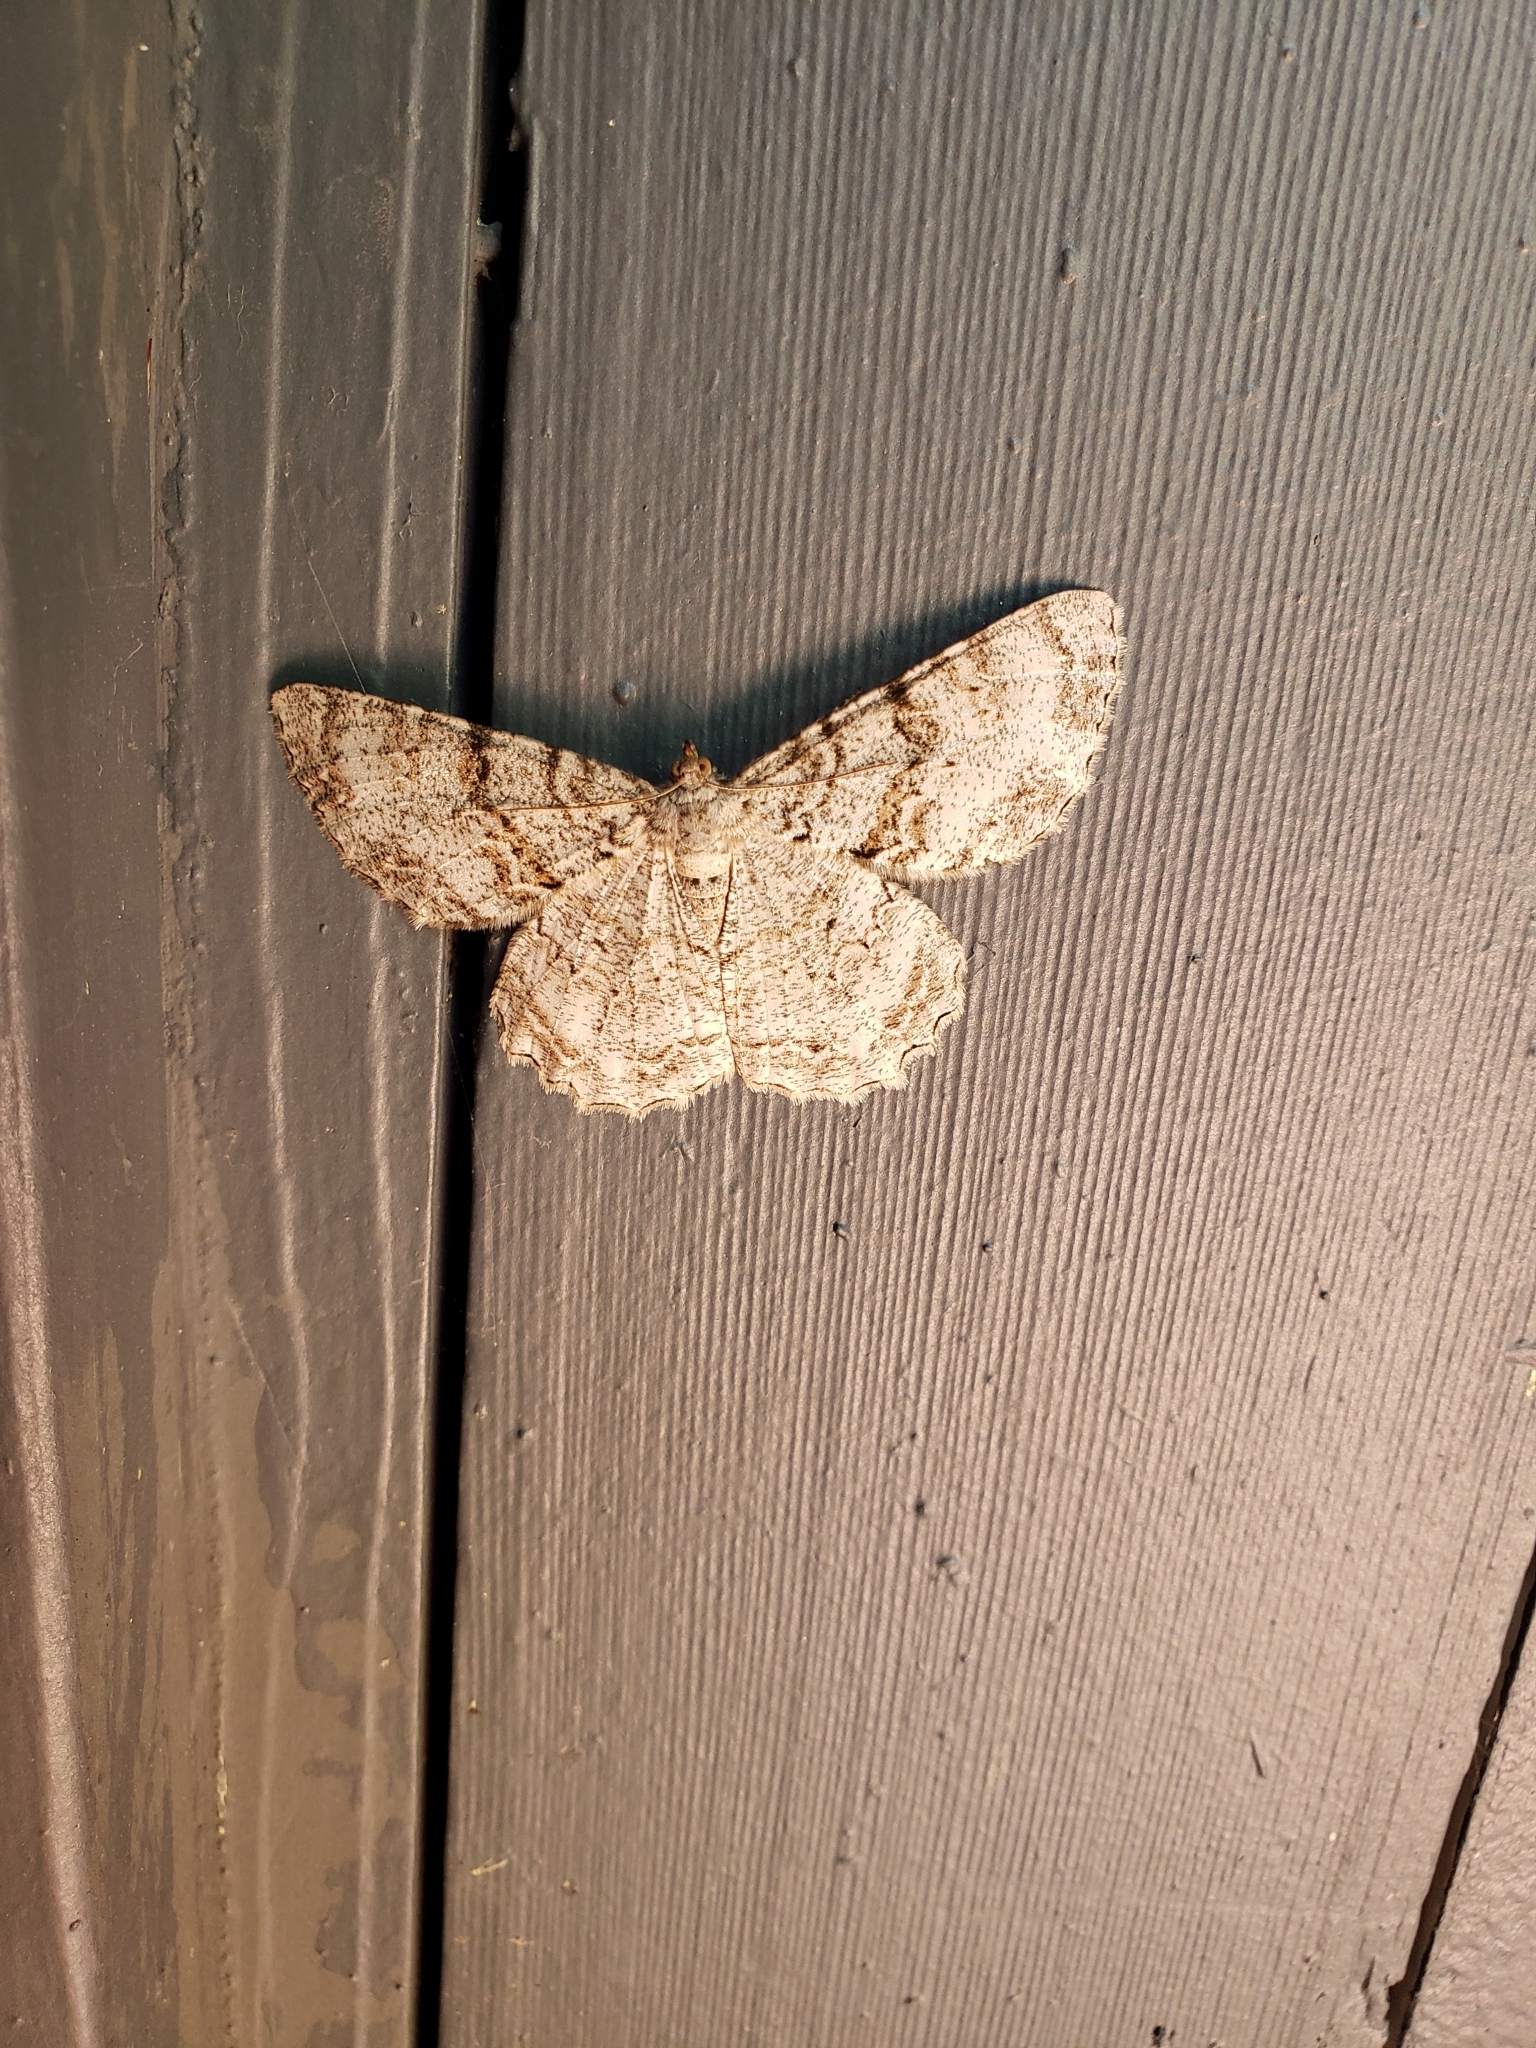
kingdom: Animalia
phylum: Arthropoda
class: Insecta
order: Lepidoptera
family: Geometridae
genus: Epimecis
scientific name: Epimecis hortaria
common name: Tulip-tree beauty
